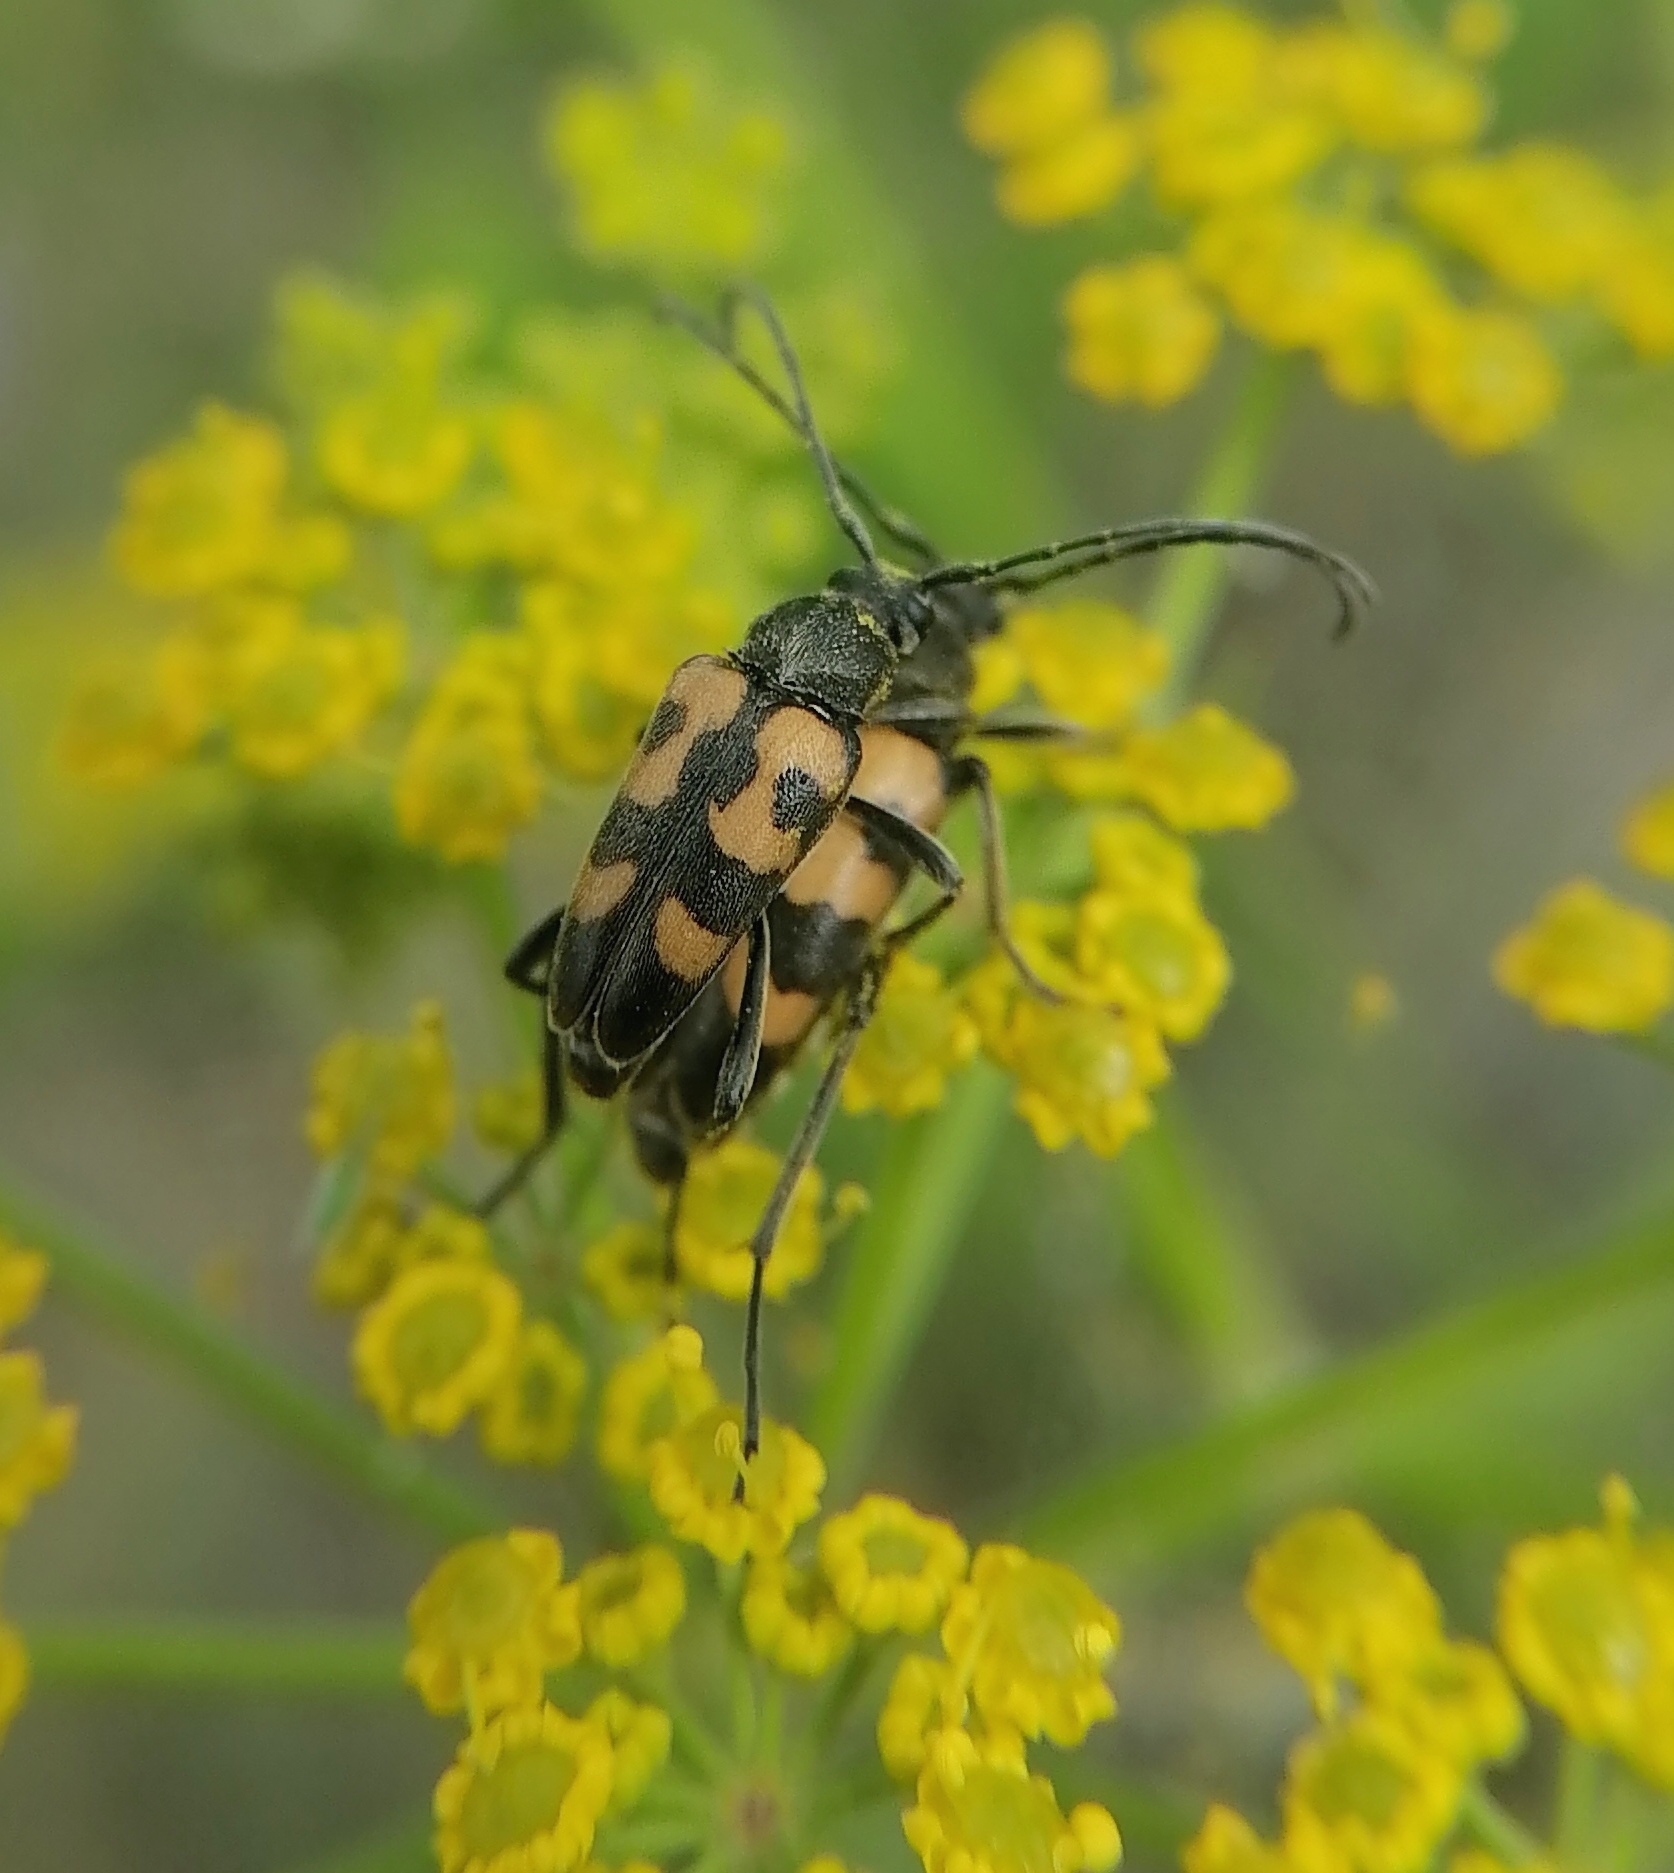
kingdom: Animalia
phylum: Arthropoda
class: Insecta
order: Coleoptera
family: Cerambycidae
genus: Pachytodes
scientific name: Pachytodes
